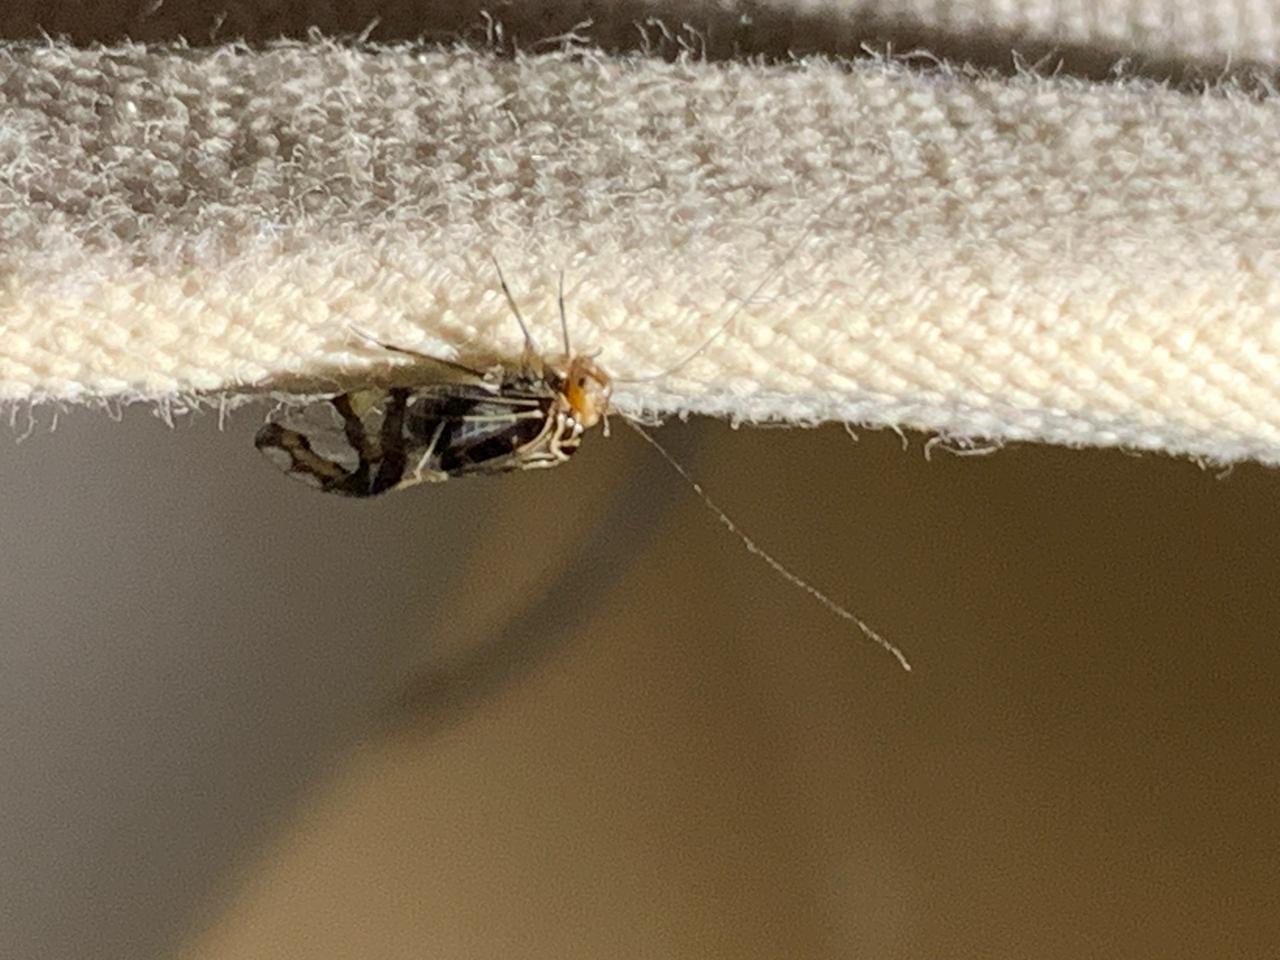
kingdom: Animalia
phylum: Arthropoda
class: Insecta
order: Psocodea
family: Psocidae
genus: Cerastipsocus
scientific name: Cerastipsocus trifasciatus
